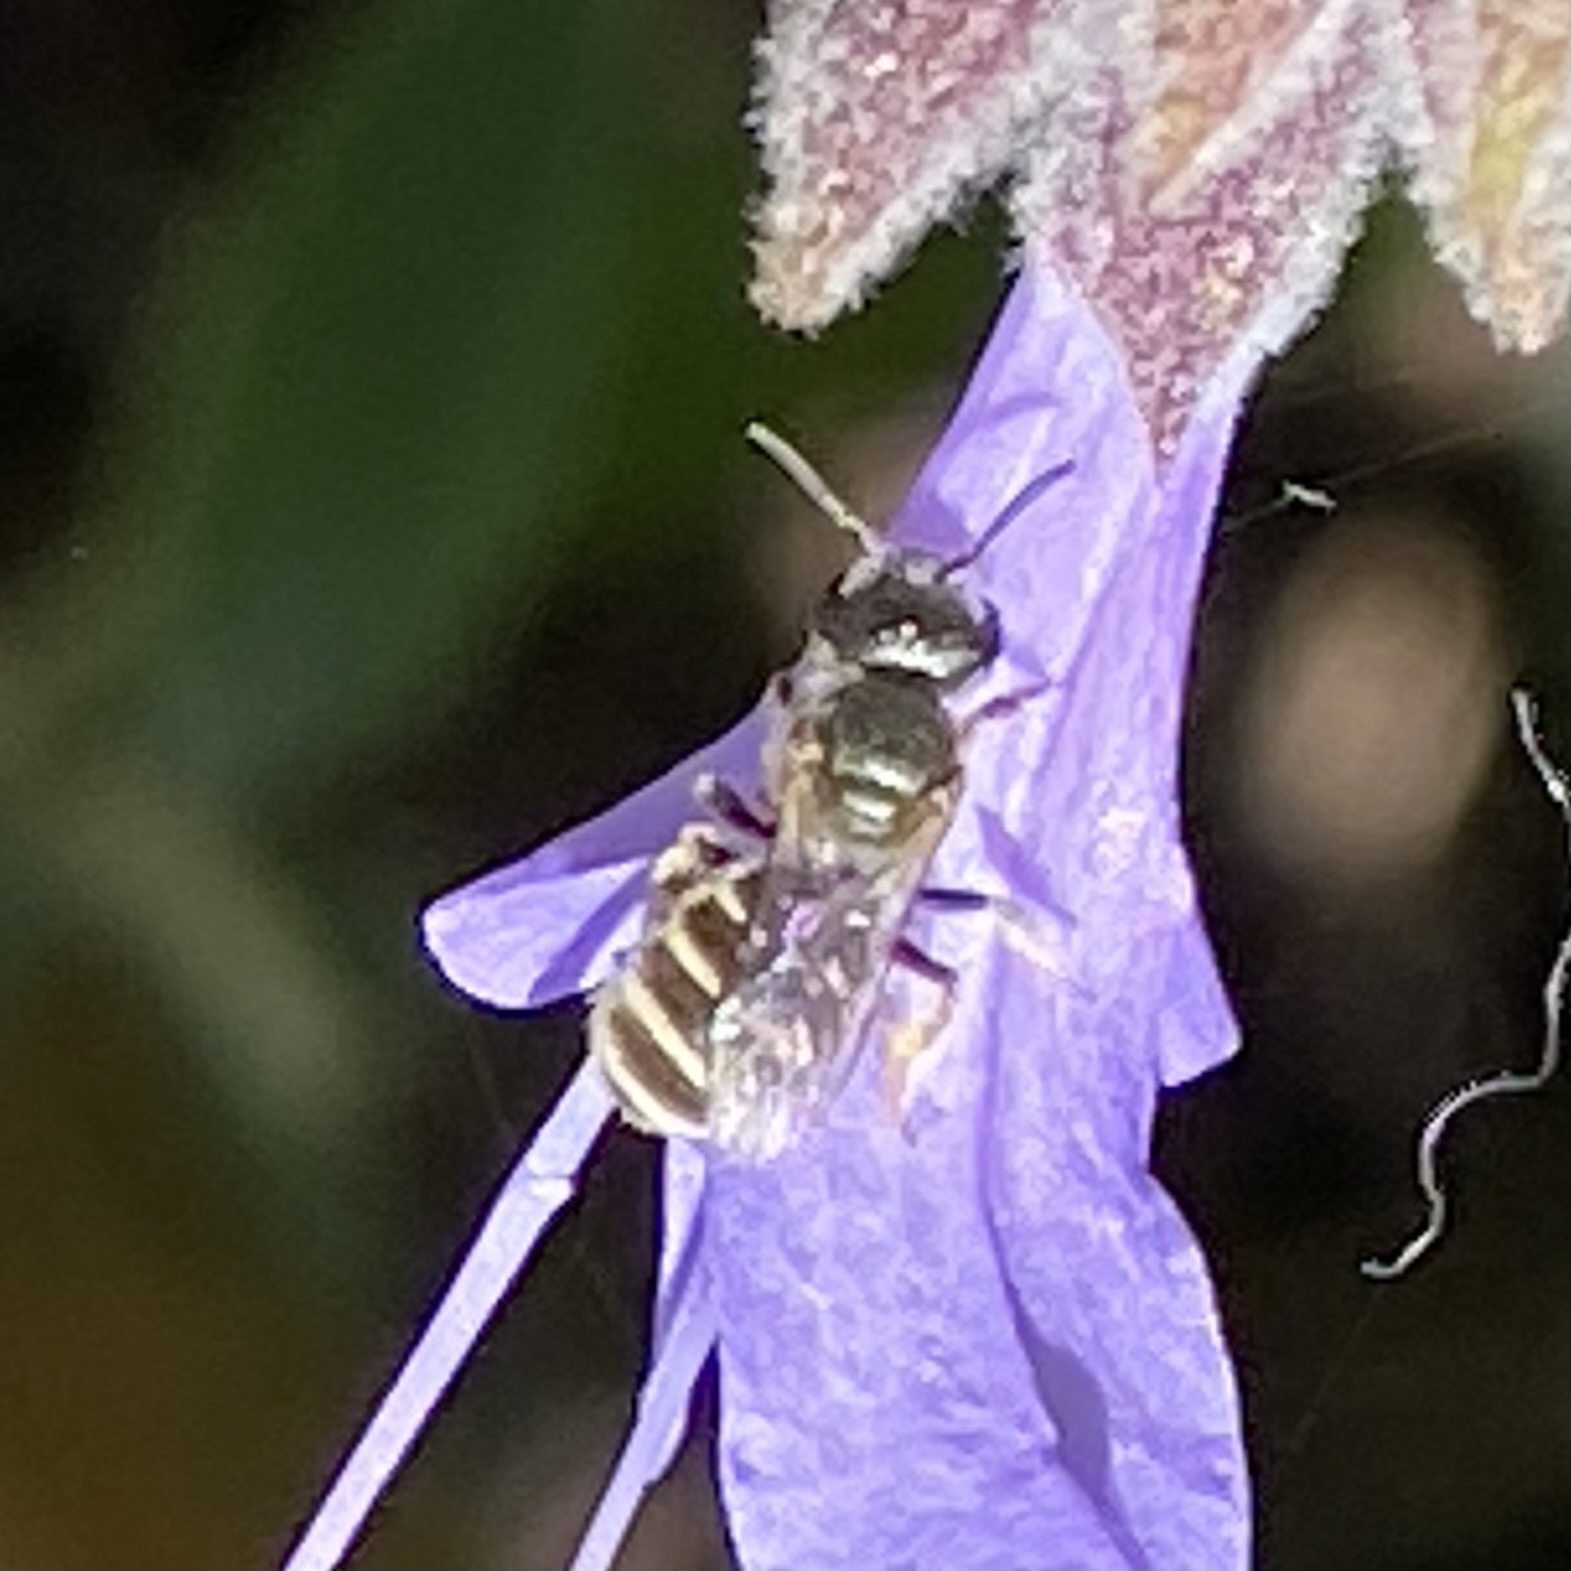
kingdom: Animalia
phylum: Arthropoda
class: Insecta
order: Hymenoptera
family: Halictidae
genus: Halictus
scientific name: Halictus tripartitus
